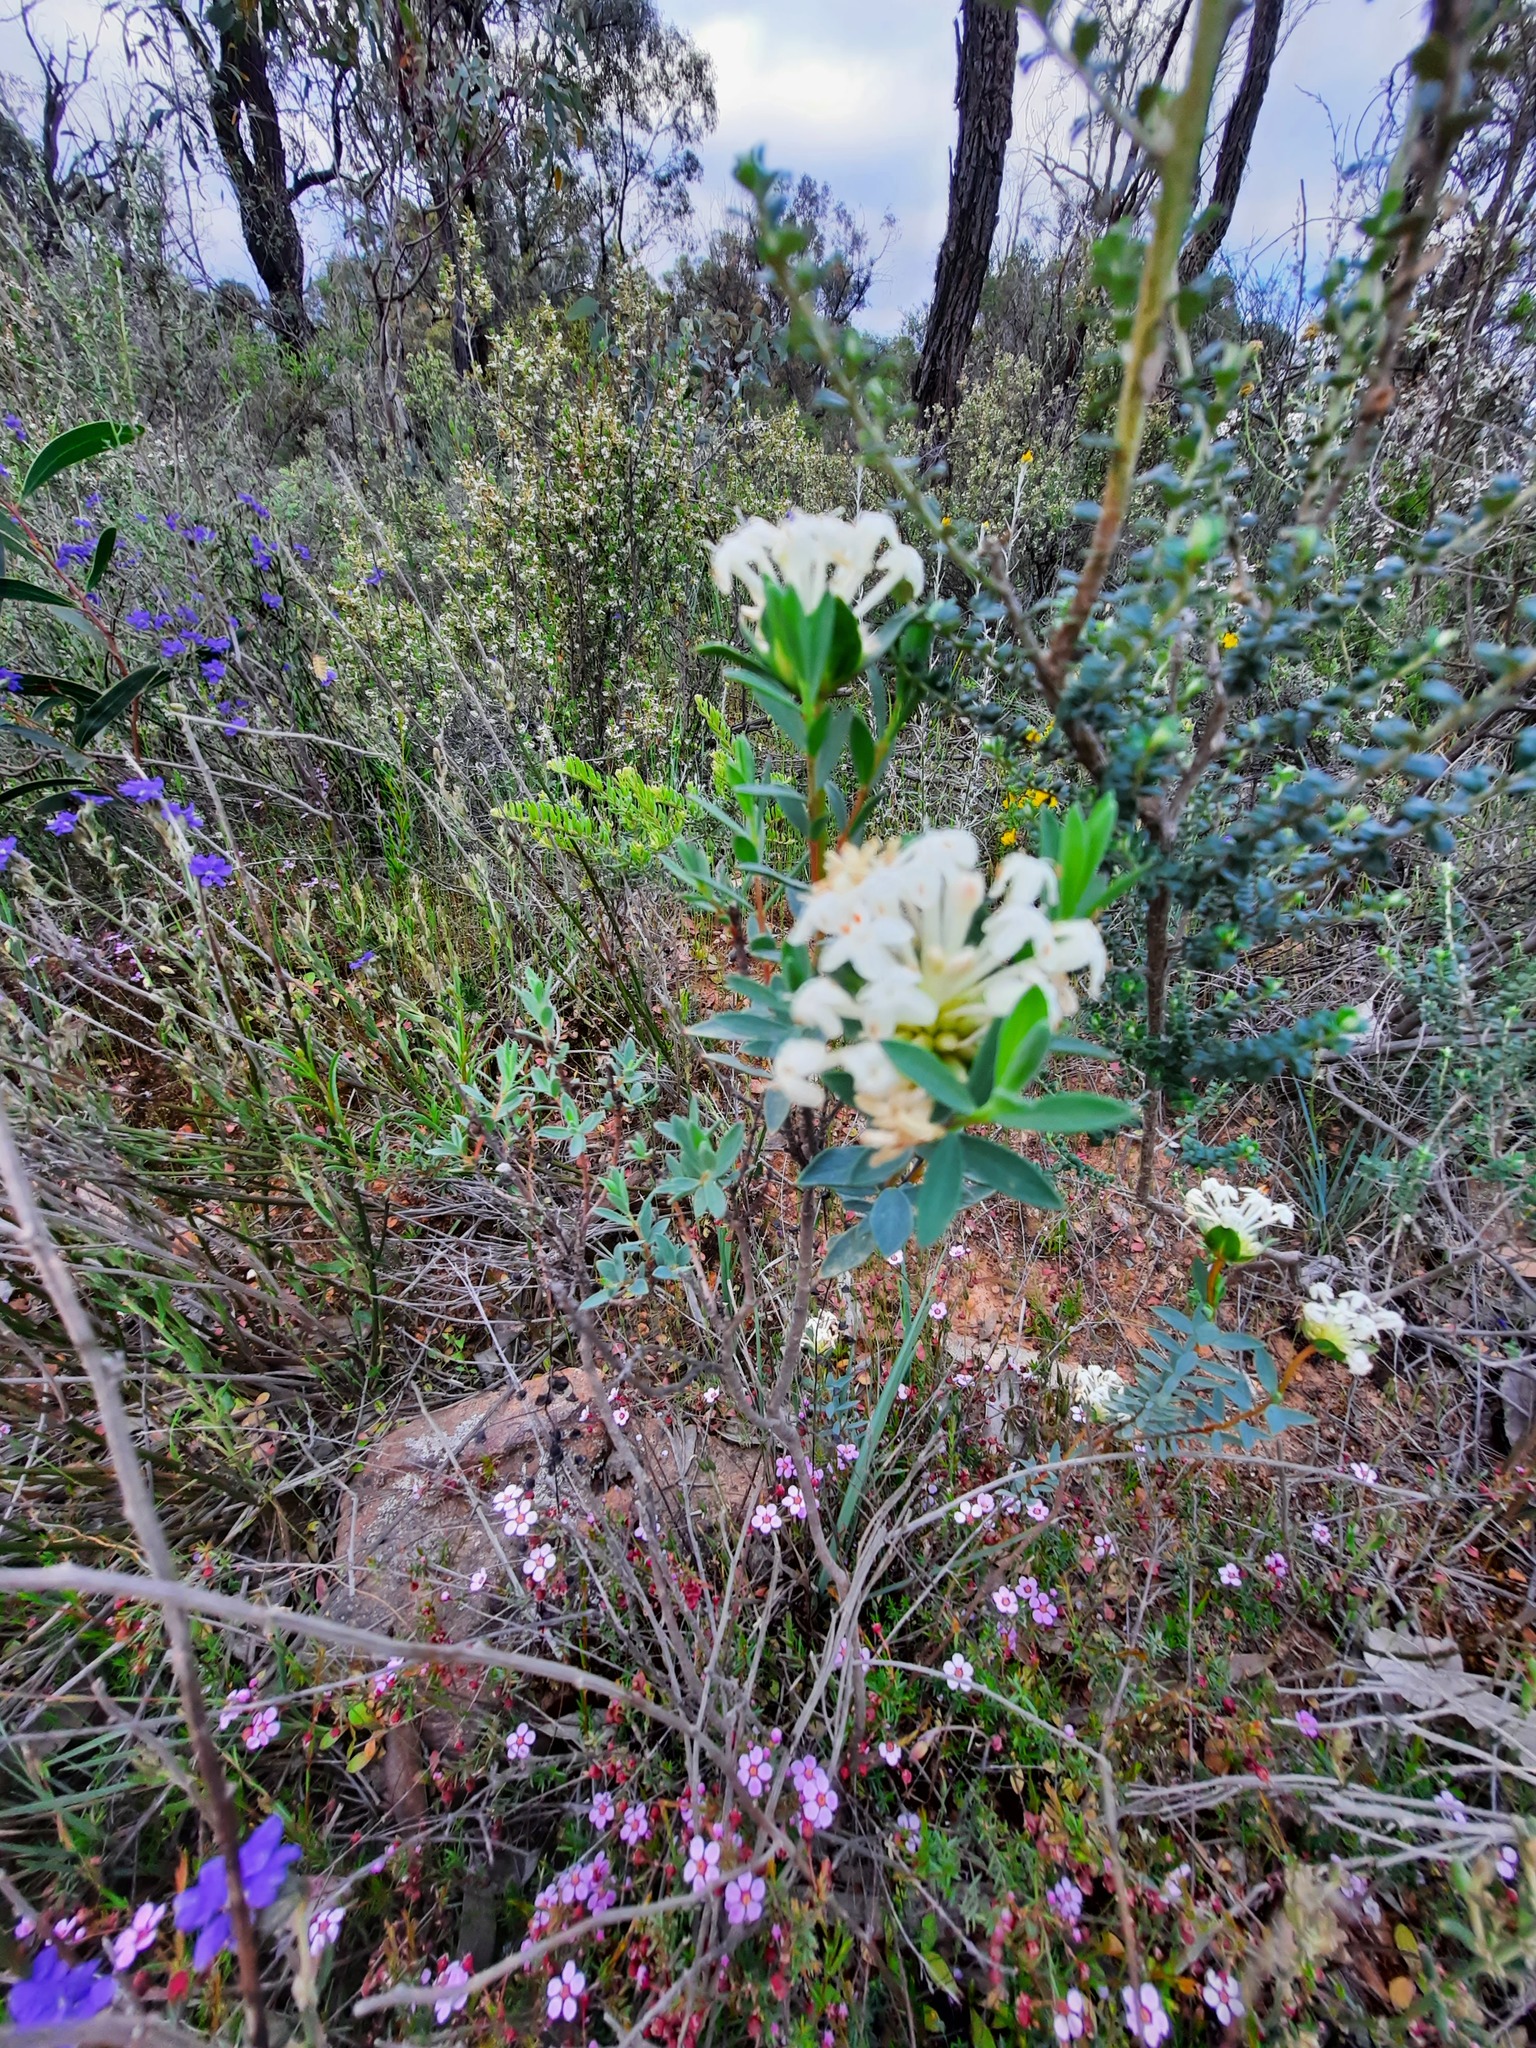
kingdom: Plantae
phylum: Tracheophyta
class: Magnoliopsida
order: Malvales
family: Thymelaeaceae
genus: Pimelea
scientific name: Pimelea linifolia
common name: Queen-of-the-bush
